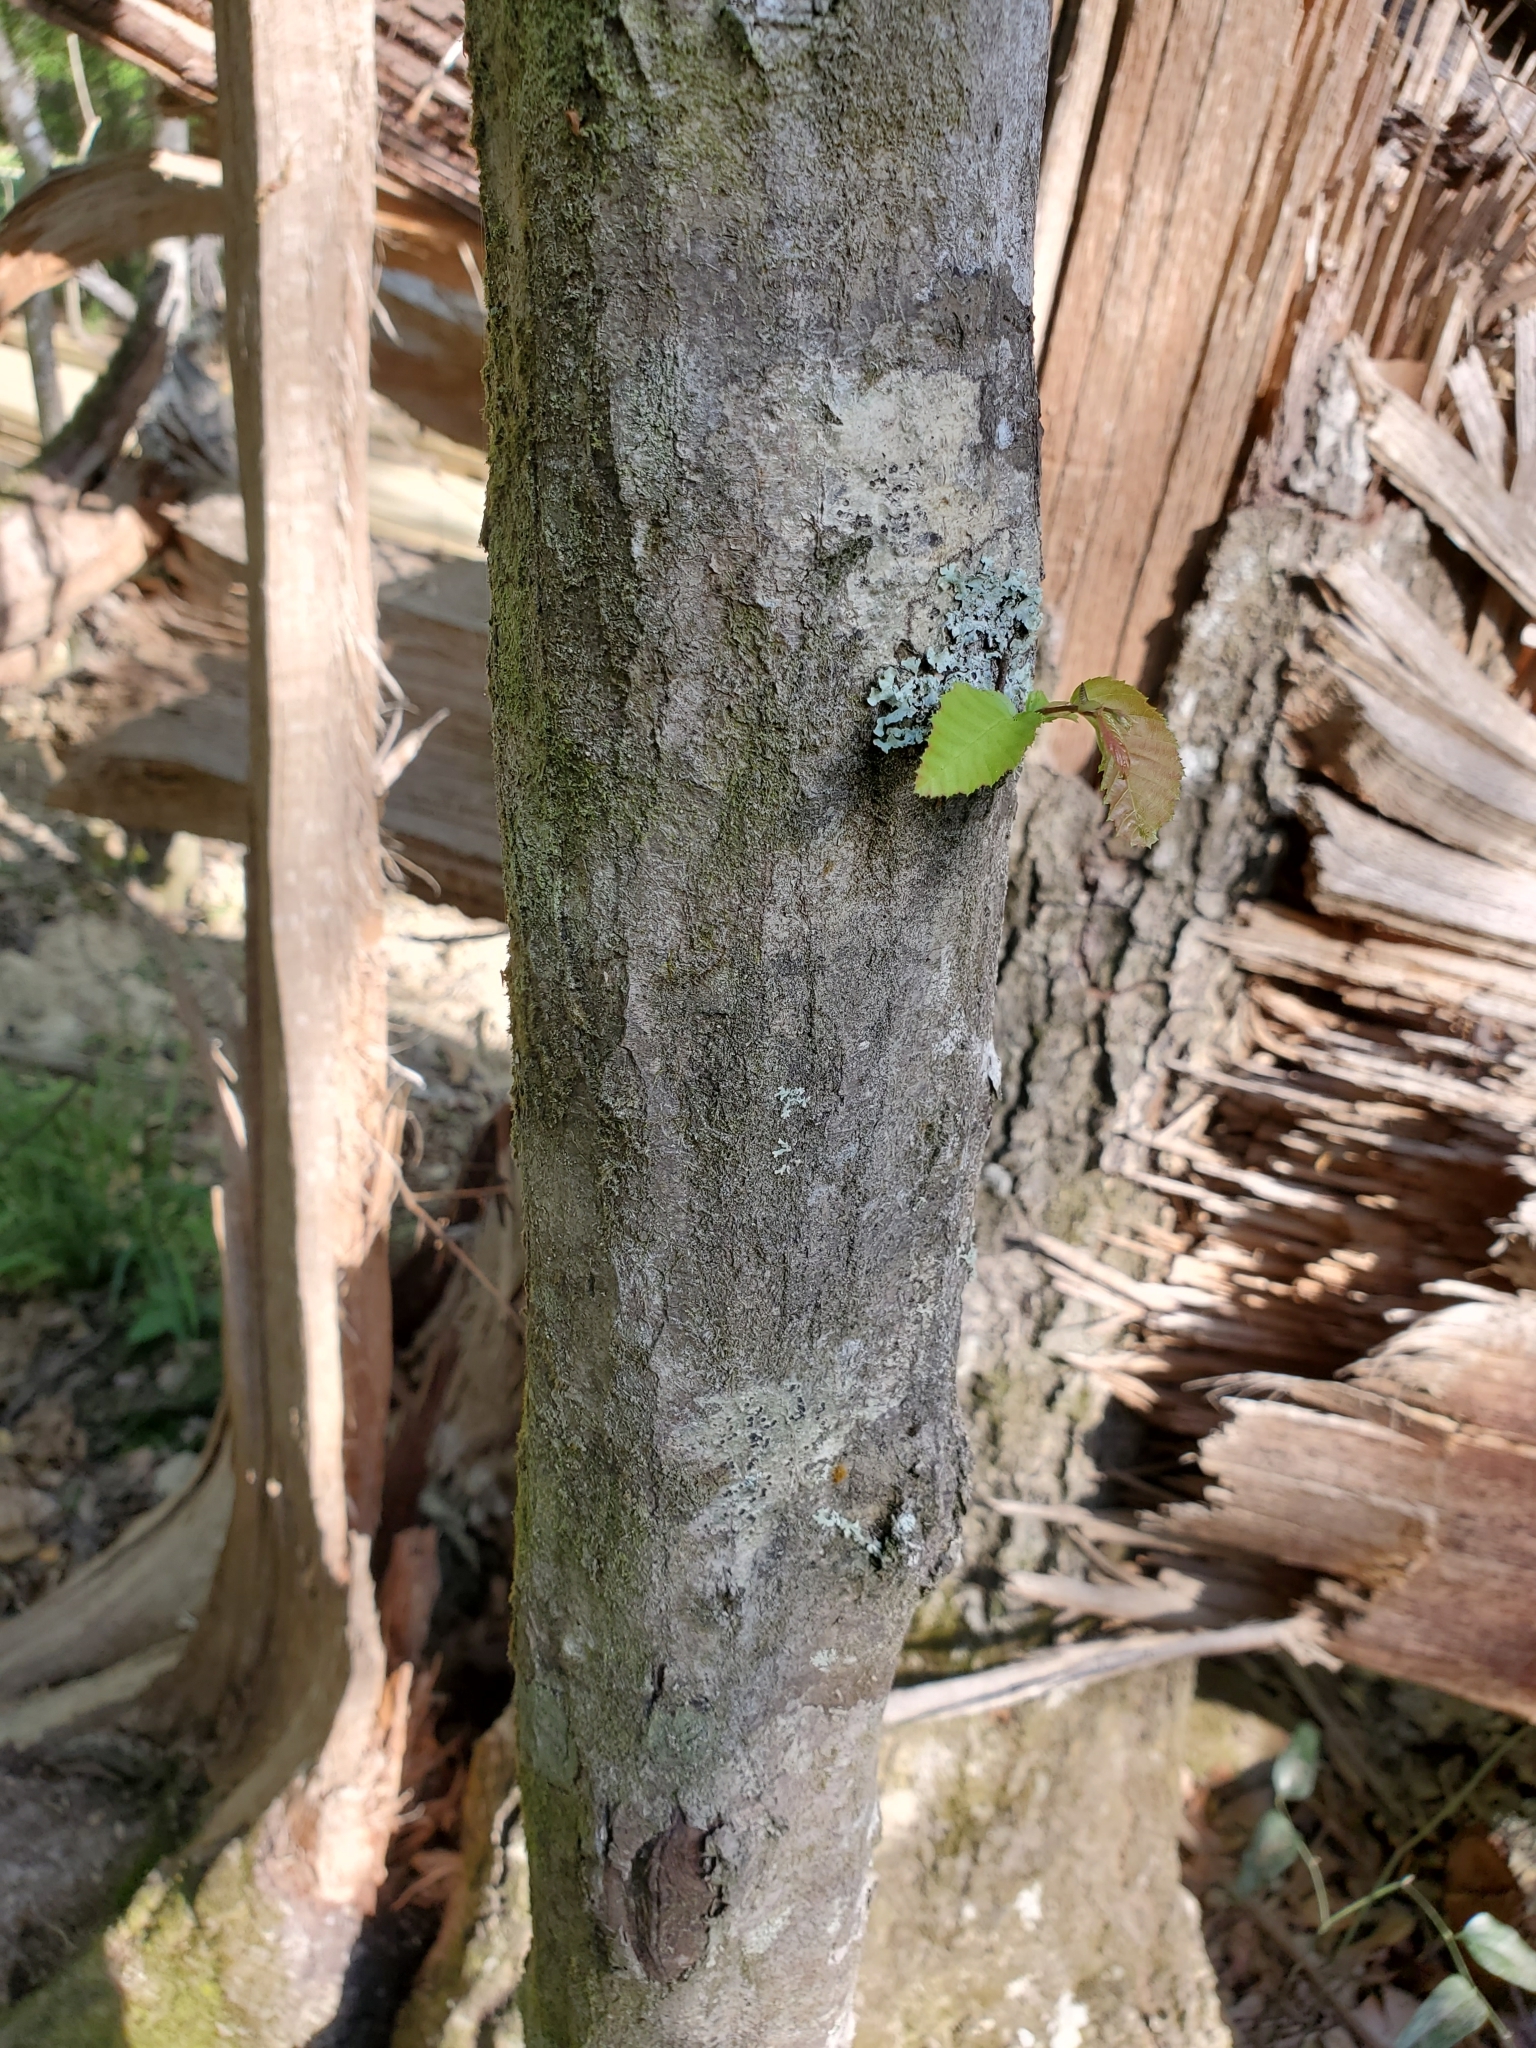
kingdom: Plantae
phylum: Tracheophyta
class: Magnoliopsida
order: Fagales
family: Betulaceae
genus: Carpinus
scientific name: Carpinus caroliniana
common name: American hornbeam
